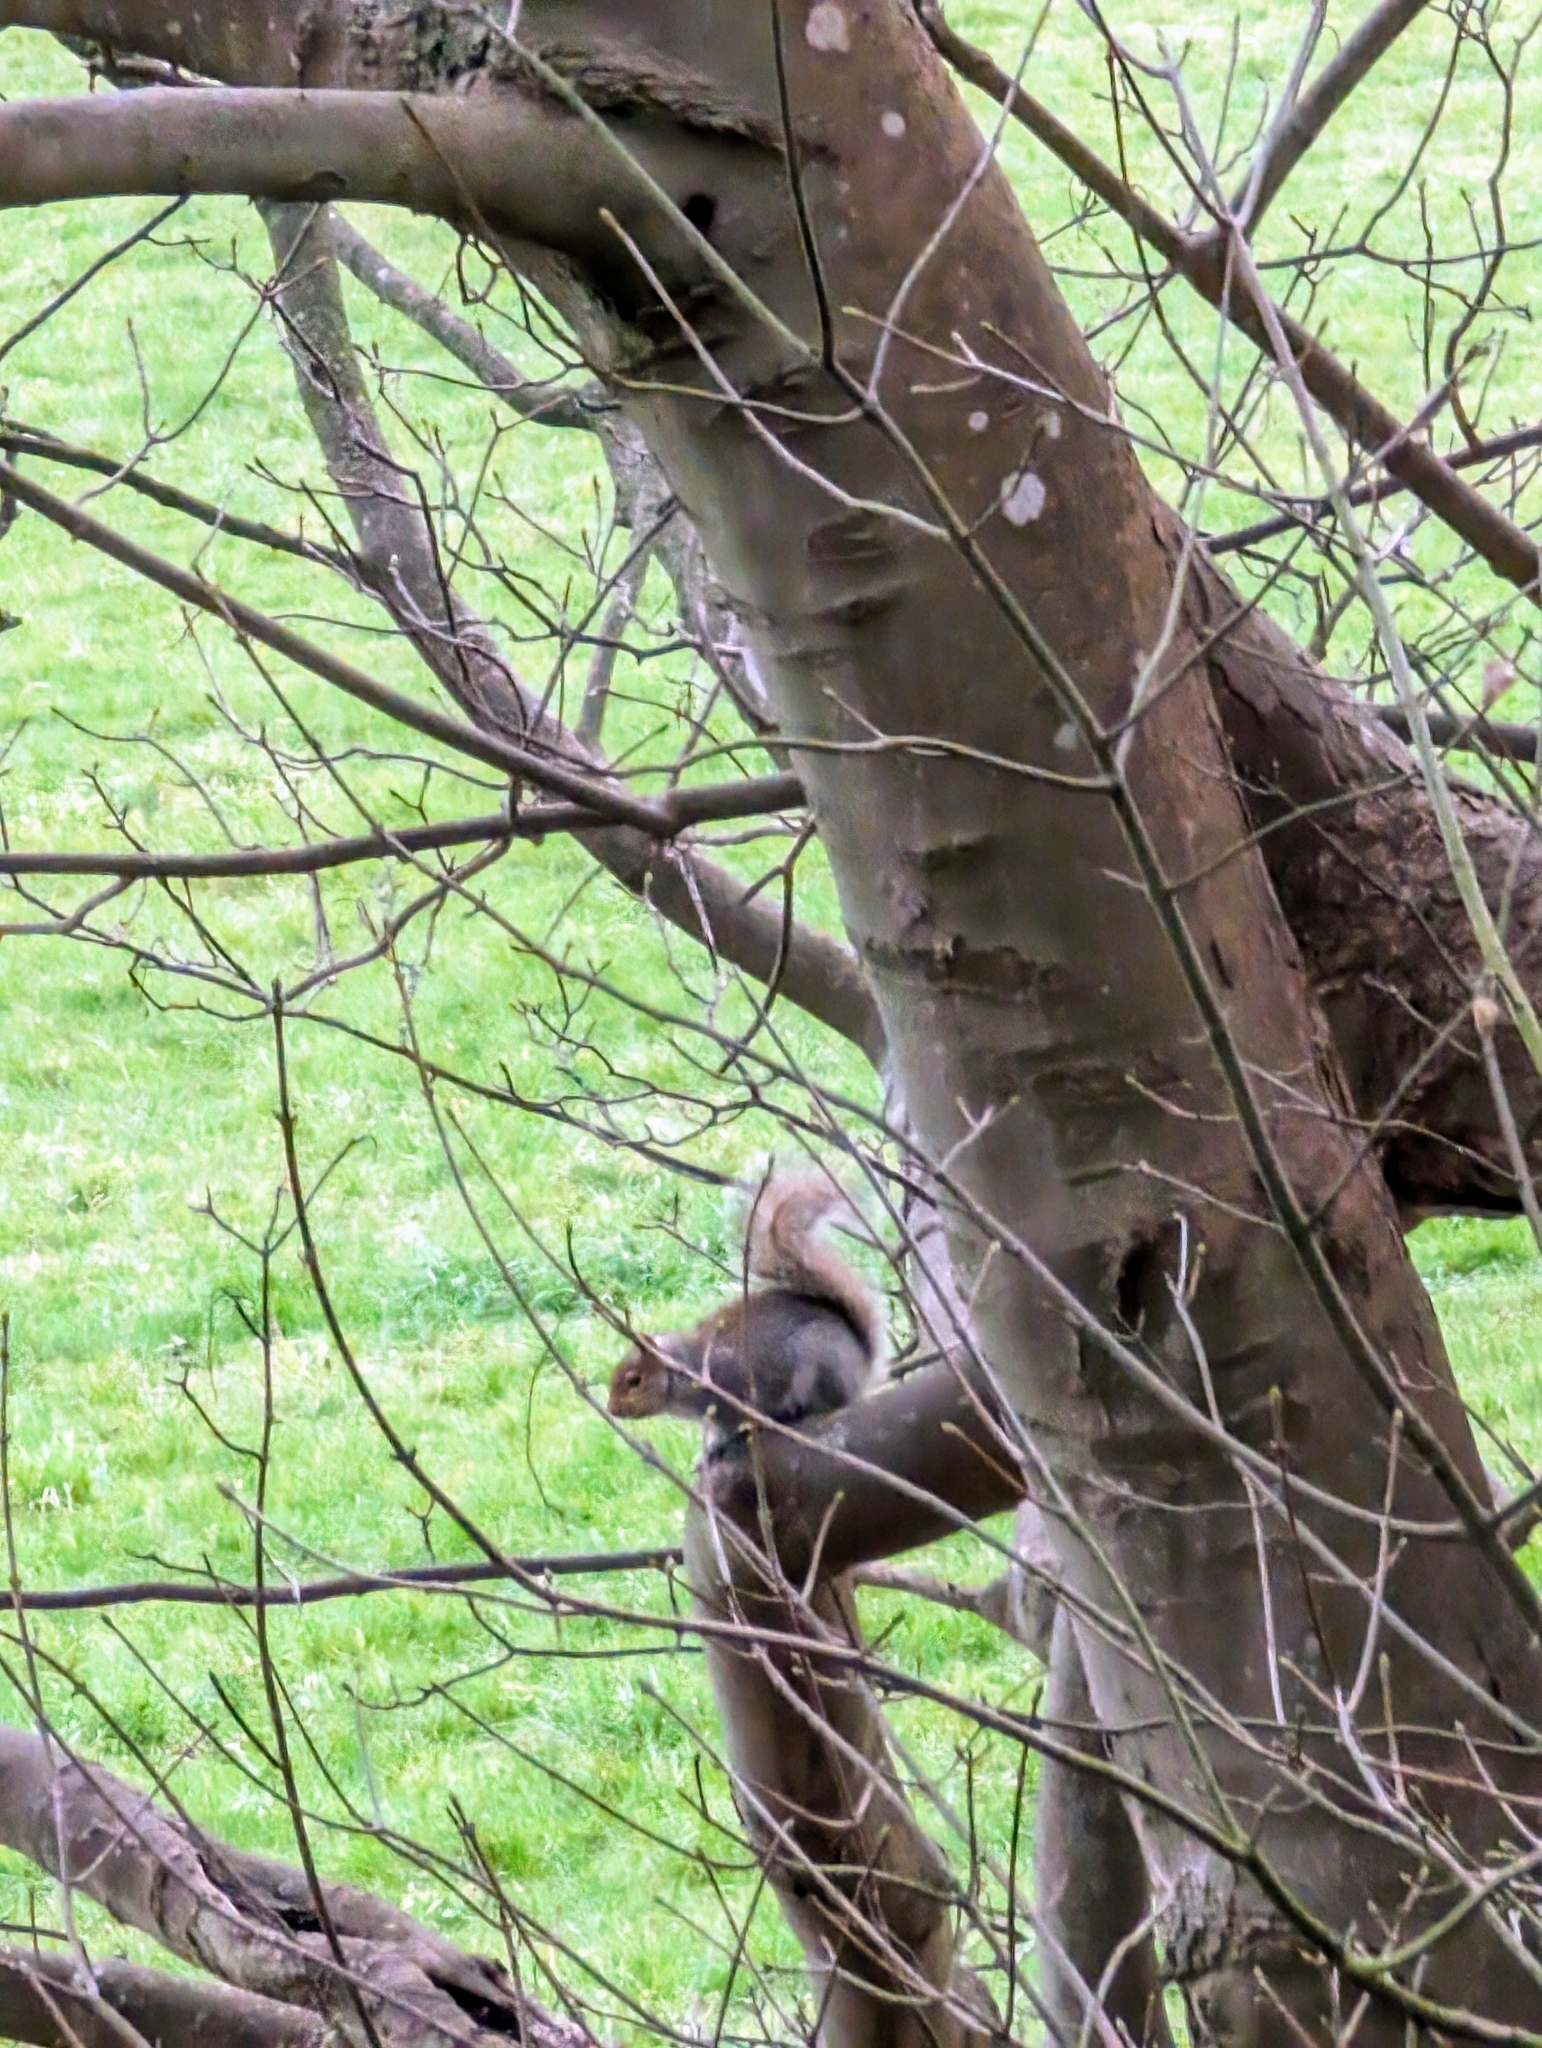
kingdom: Animalia
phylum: Chordata
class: Mammalia
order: Rodentia
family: Sciuridae
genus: Sciurus
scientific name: Sciurus carolinensis
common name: Eastern gray squirrel
